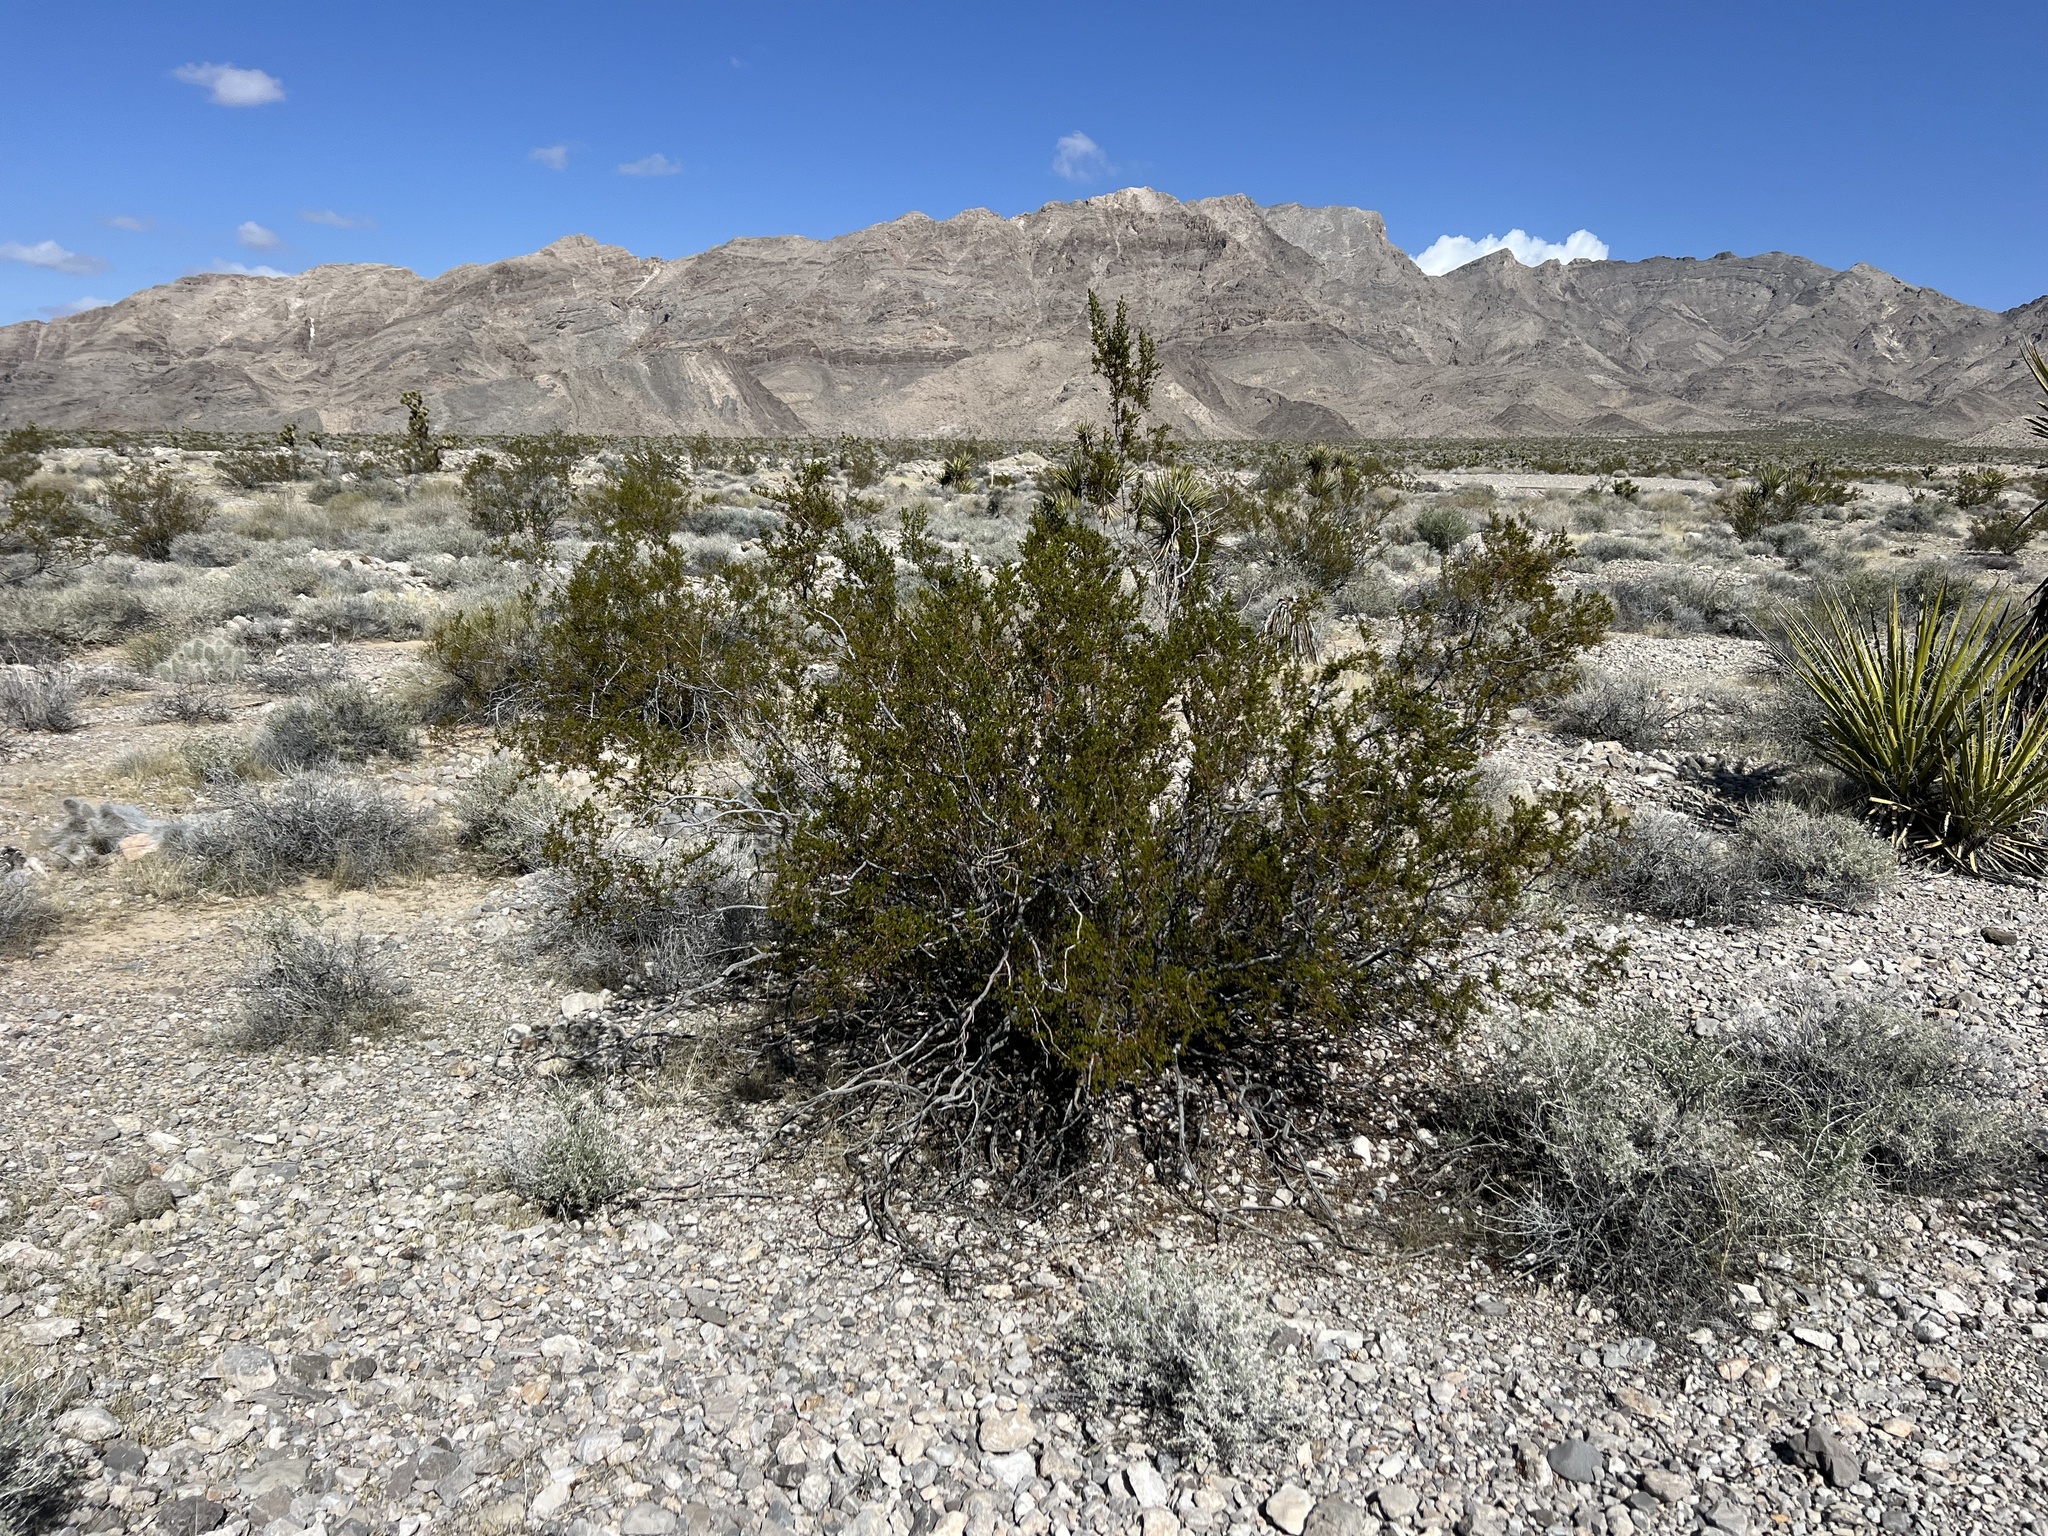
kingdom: Plantae
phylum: Tracheophyta
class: Magnoliopsida
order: Zygophyllales
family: Zygophyllaceae
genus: Larrea
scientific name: Larrea tridentata
